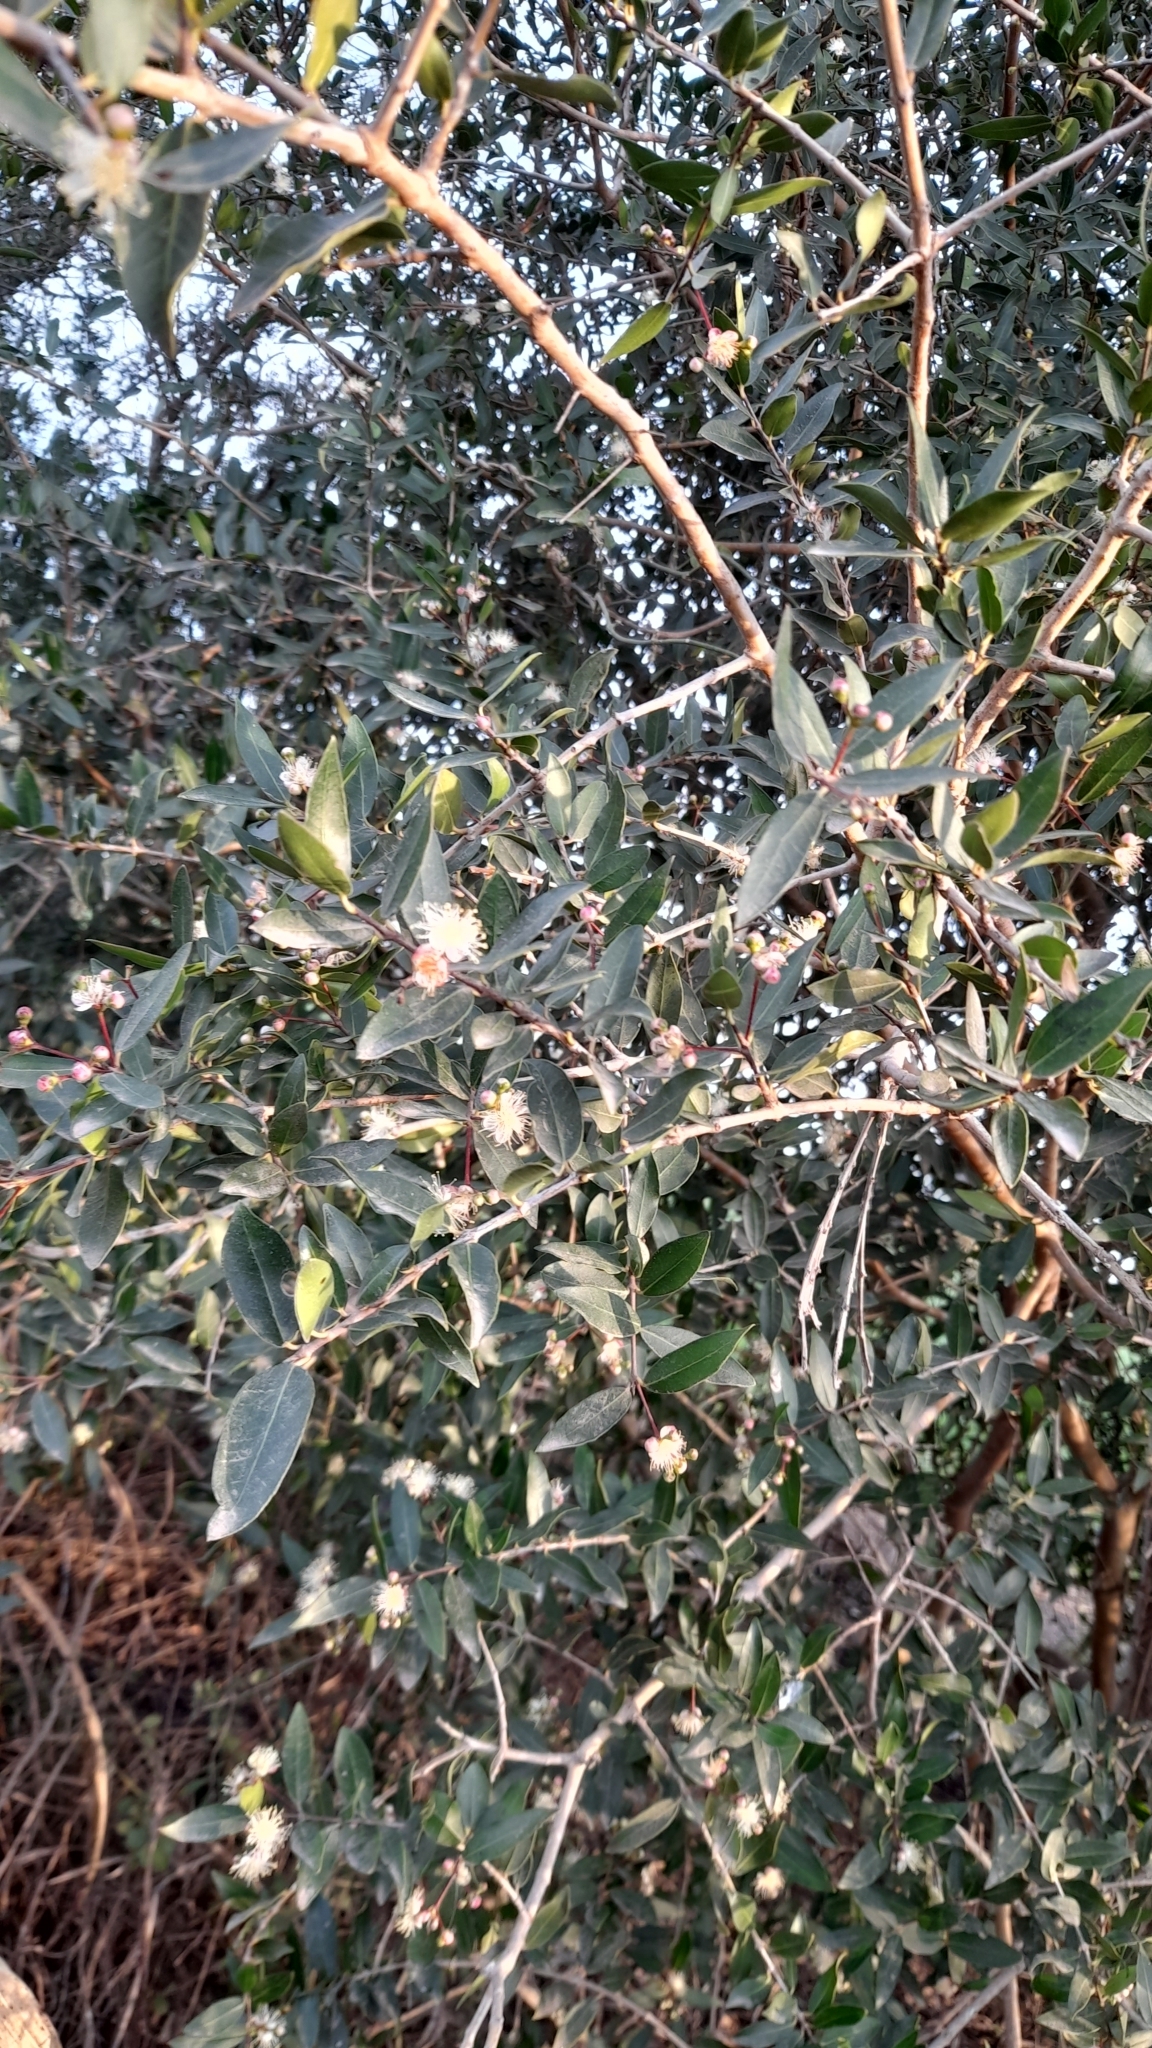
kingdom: Plantae
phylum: Tracheophyta
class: Magnoliopsida
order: Myrtales
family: Myrtaceae
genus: Myrcianthes
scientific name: Myrcianthes cisplatensis
